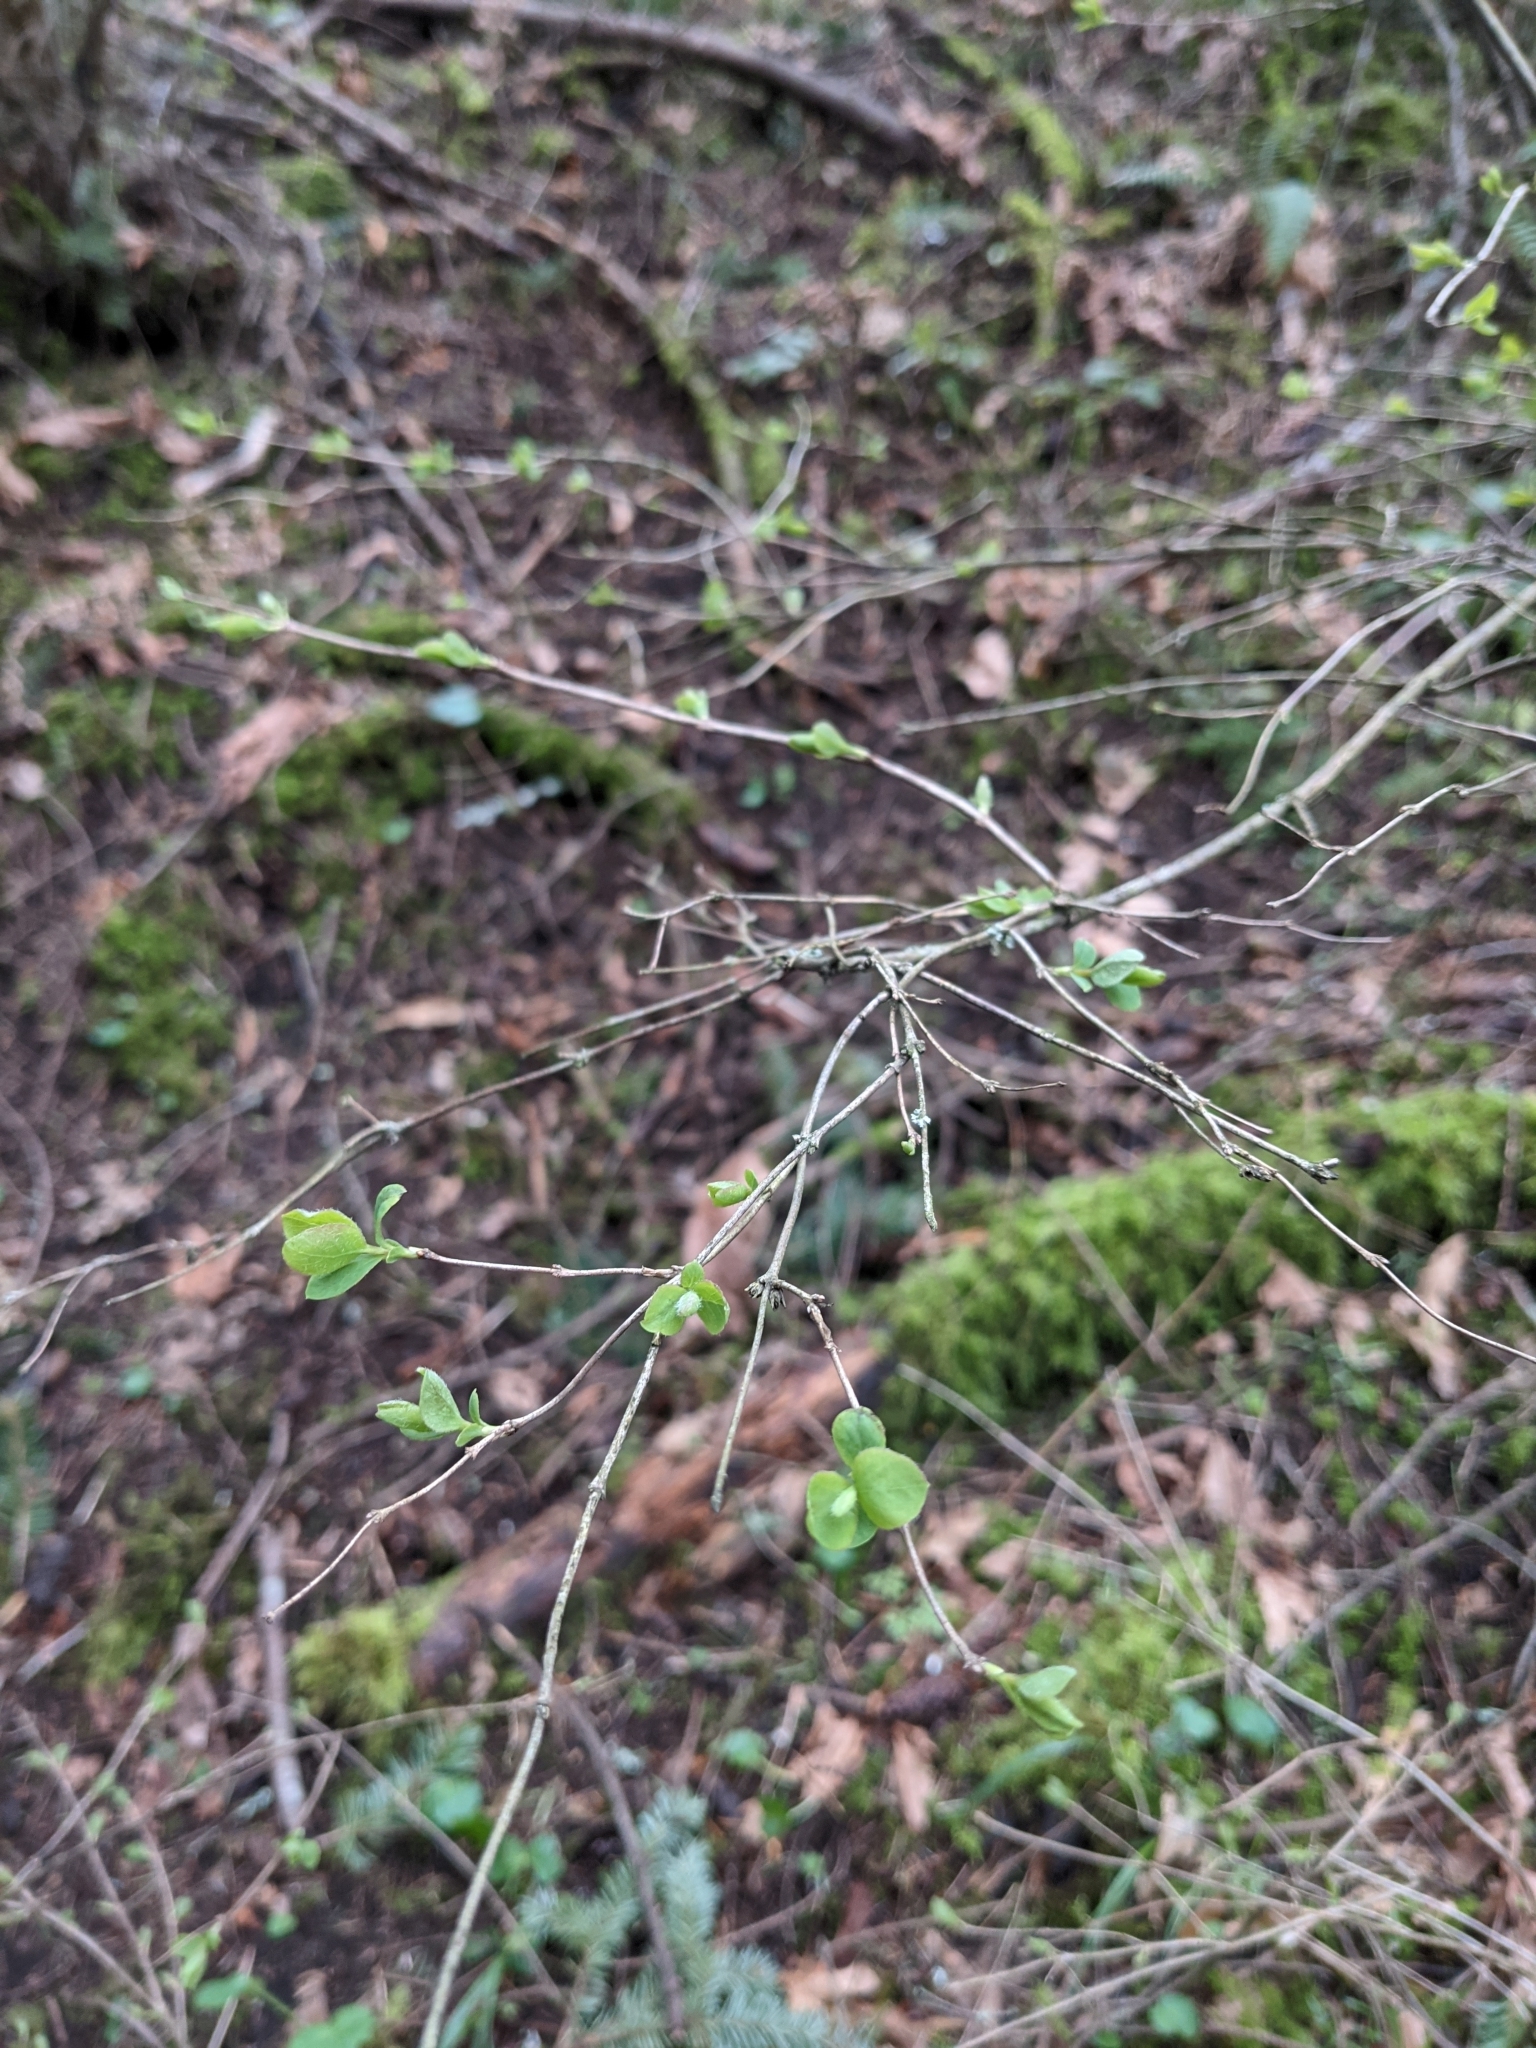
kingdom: Plantae
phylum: Tracheophyta
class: Magnoliopsida
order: Dipsacales
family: Caprifoliaceae
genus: Symphoricarpos
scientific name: Symphoricarpos albus
